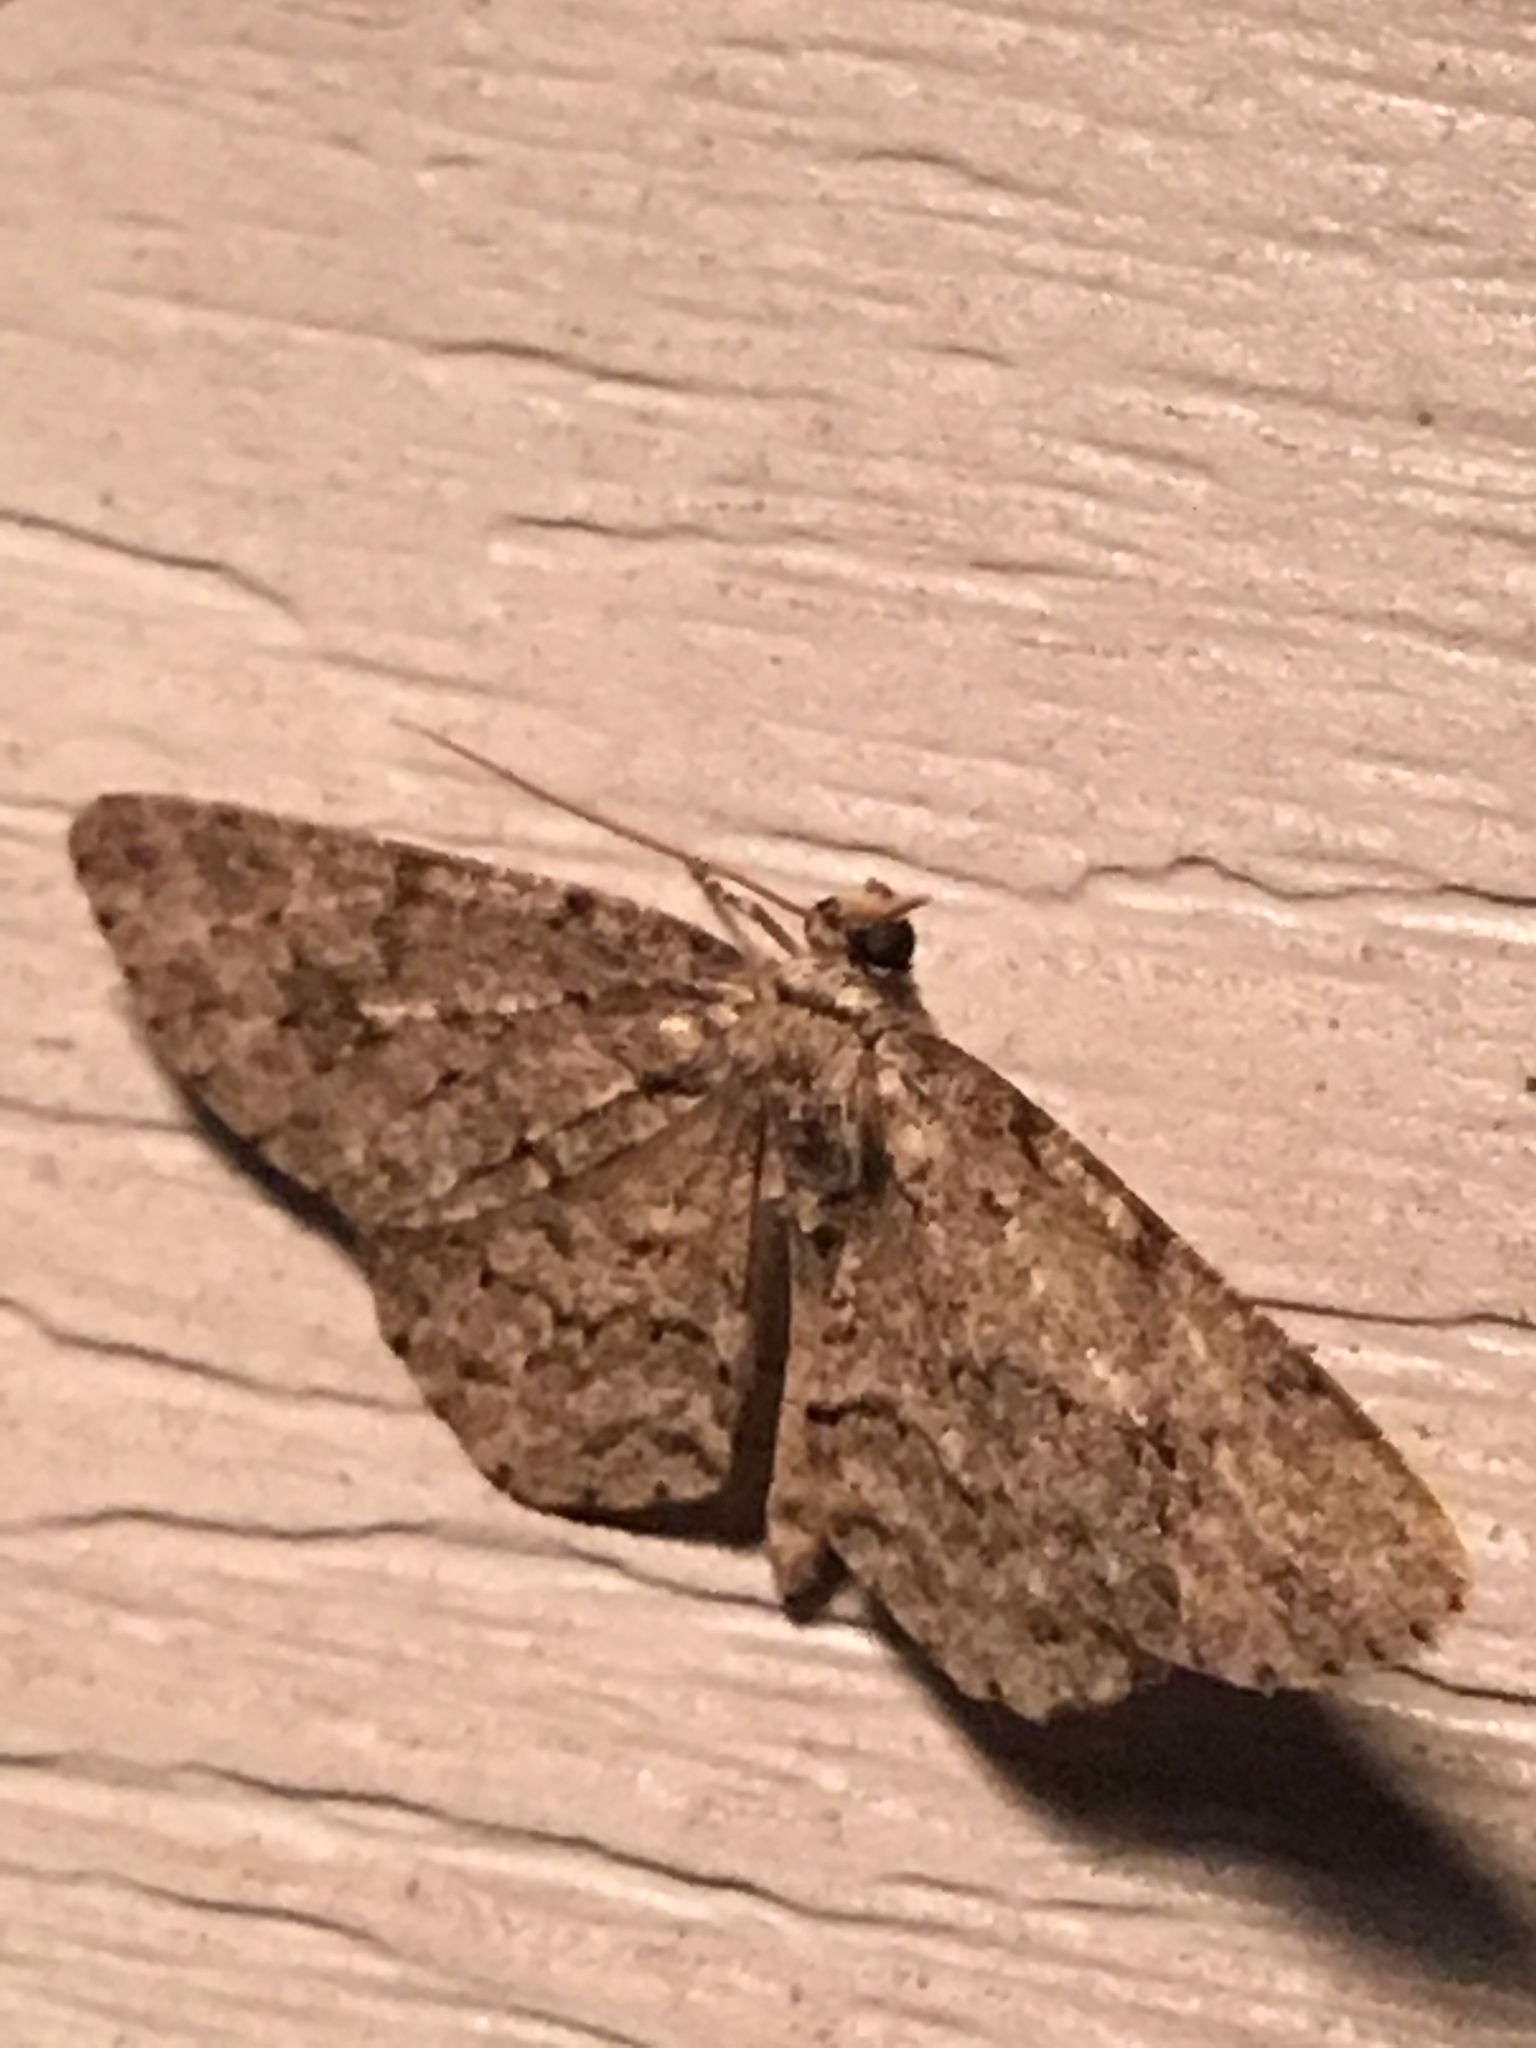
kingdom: Animalia
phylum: Arthropoda
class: Insecta
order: Lepidoptera
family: Geometridae
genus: Protoboarmia
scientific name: Protoboarmia porcelaria
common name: Porcelain gray
